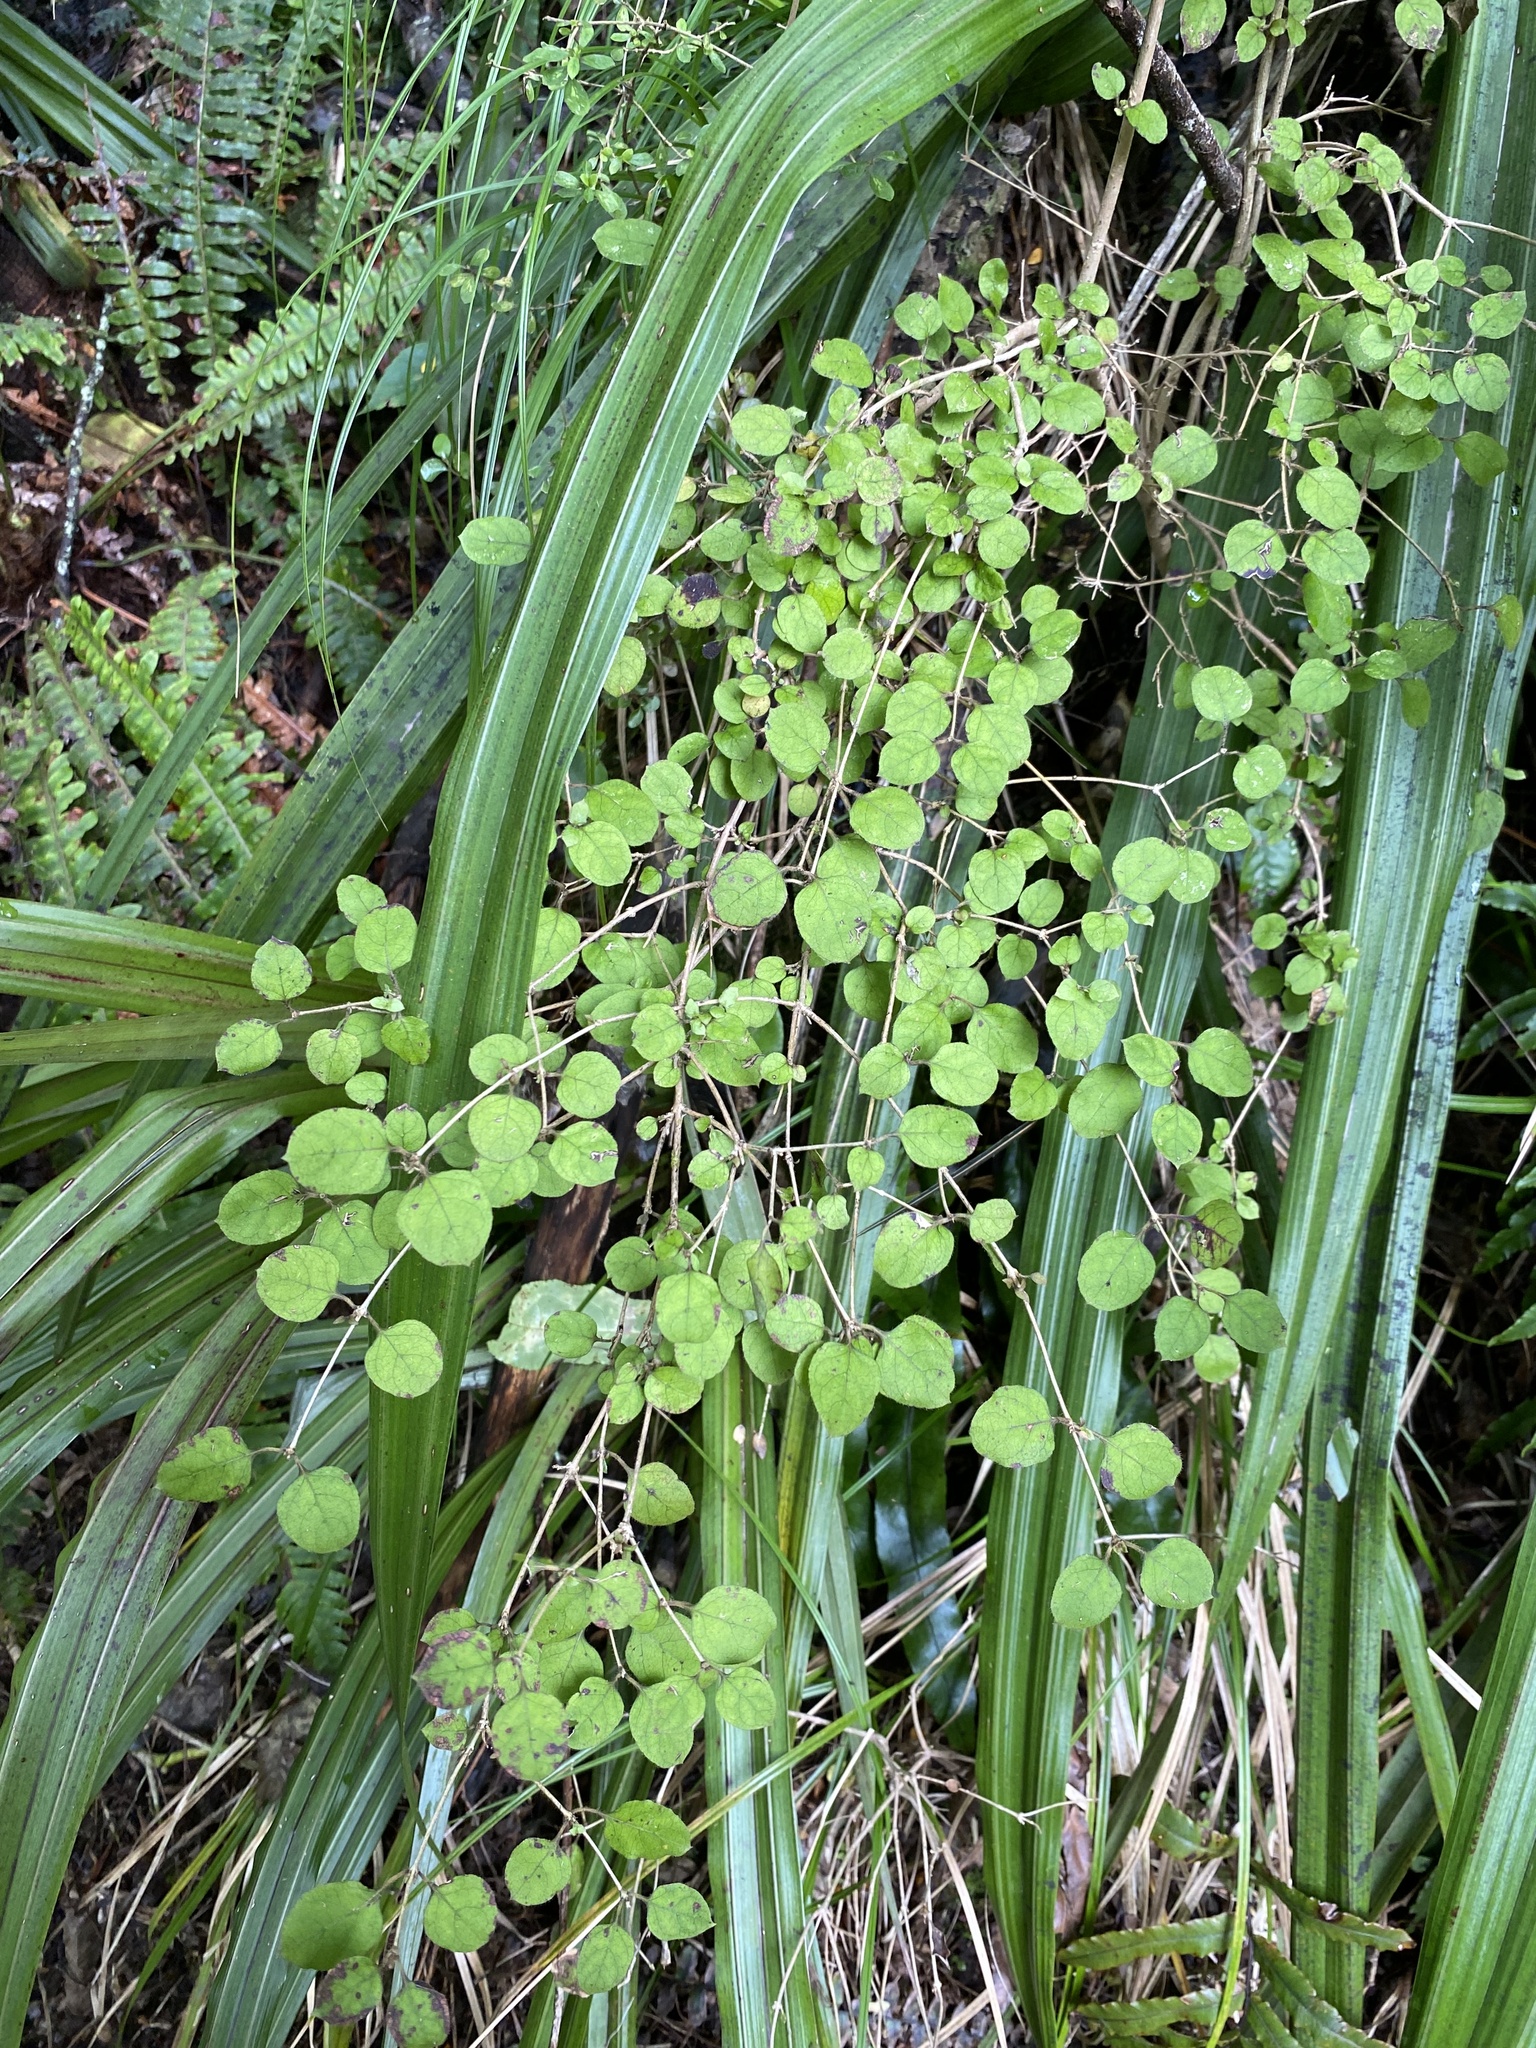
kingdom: Plantae
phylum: Tracheophyta
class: Magnoliopsida
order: Gentianales
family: Rubiaceae
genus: Coprosma
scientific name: Coprosma rotundifolia
